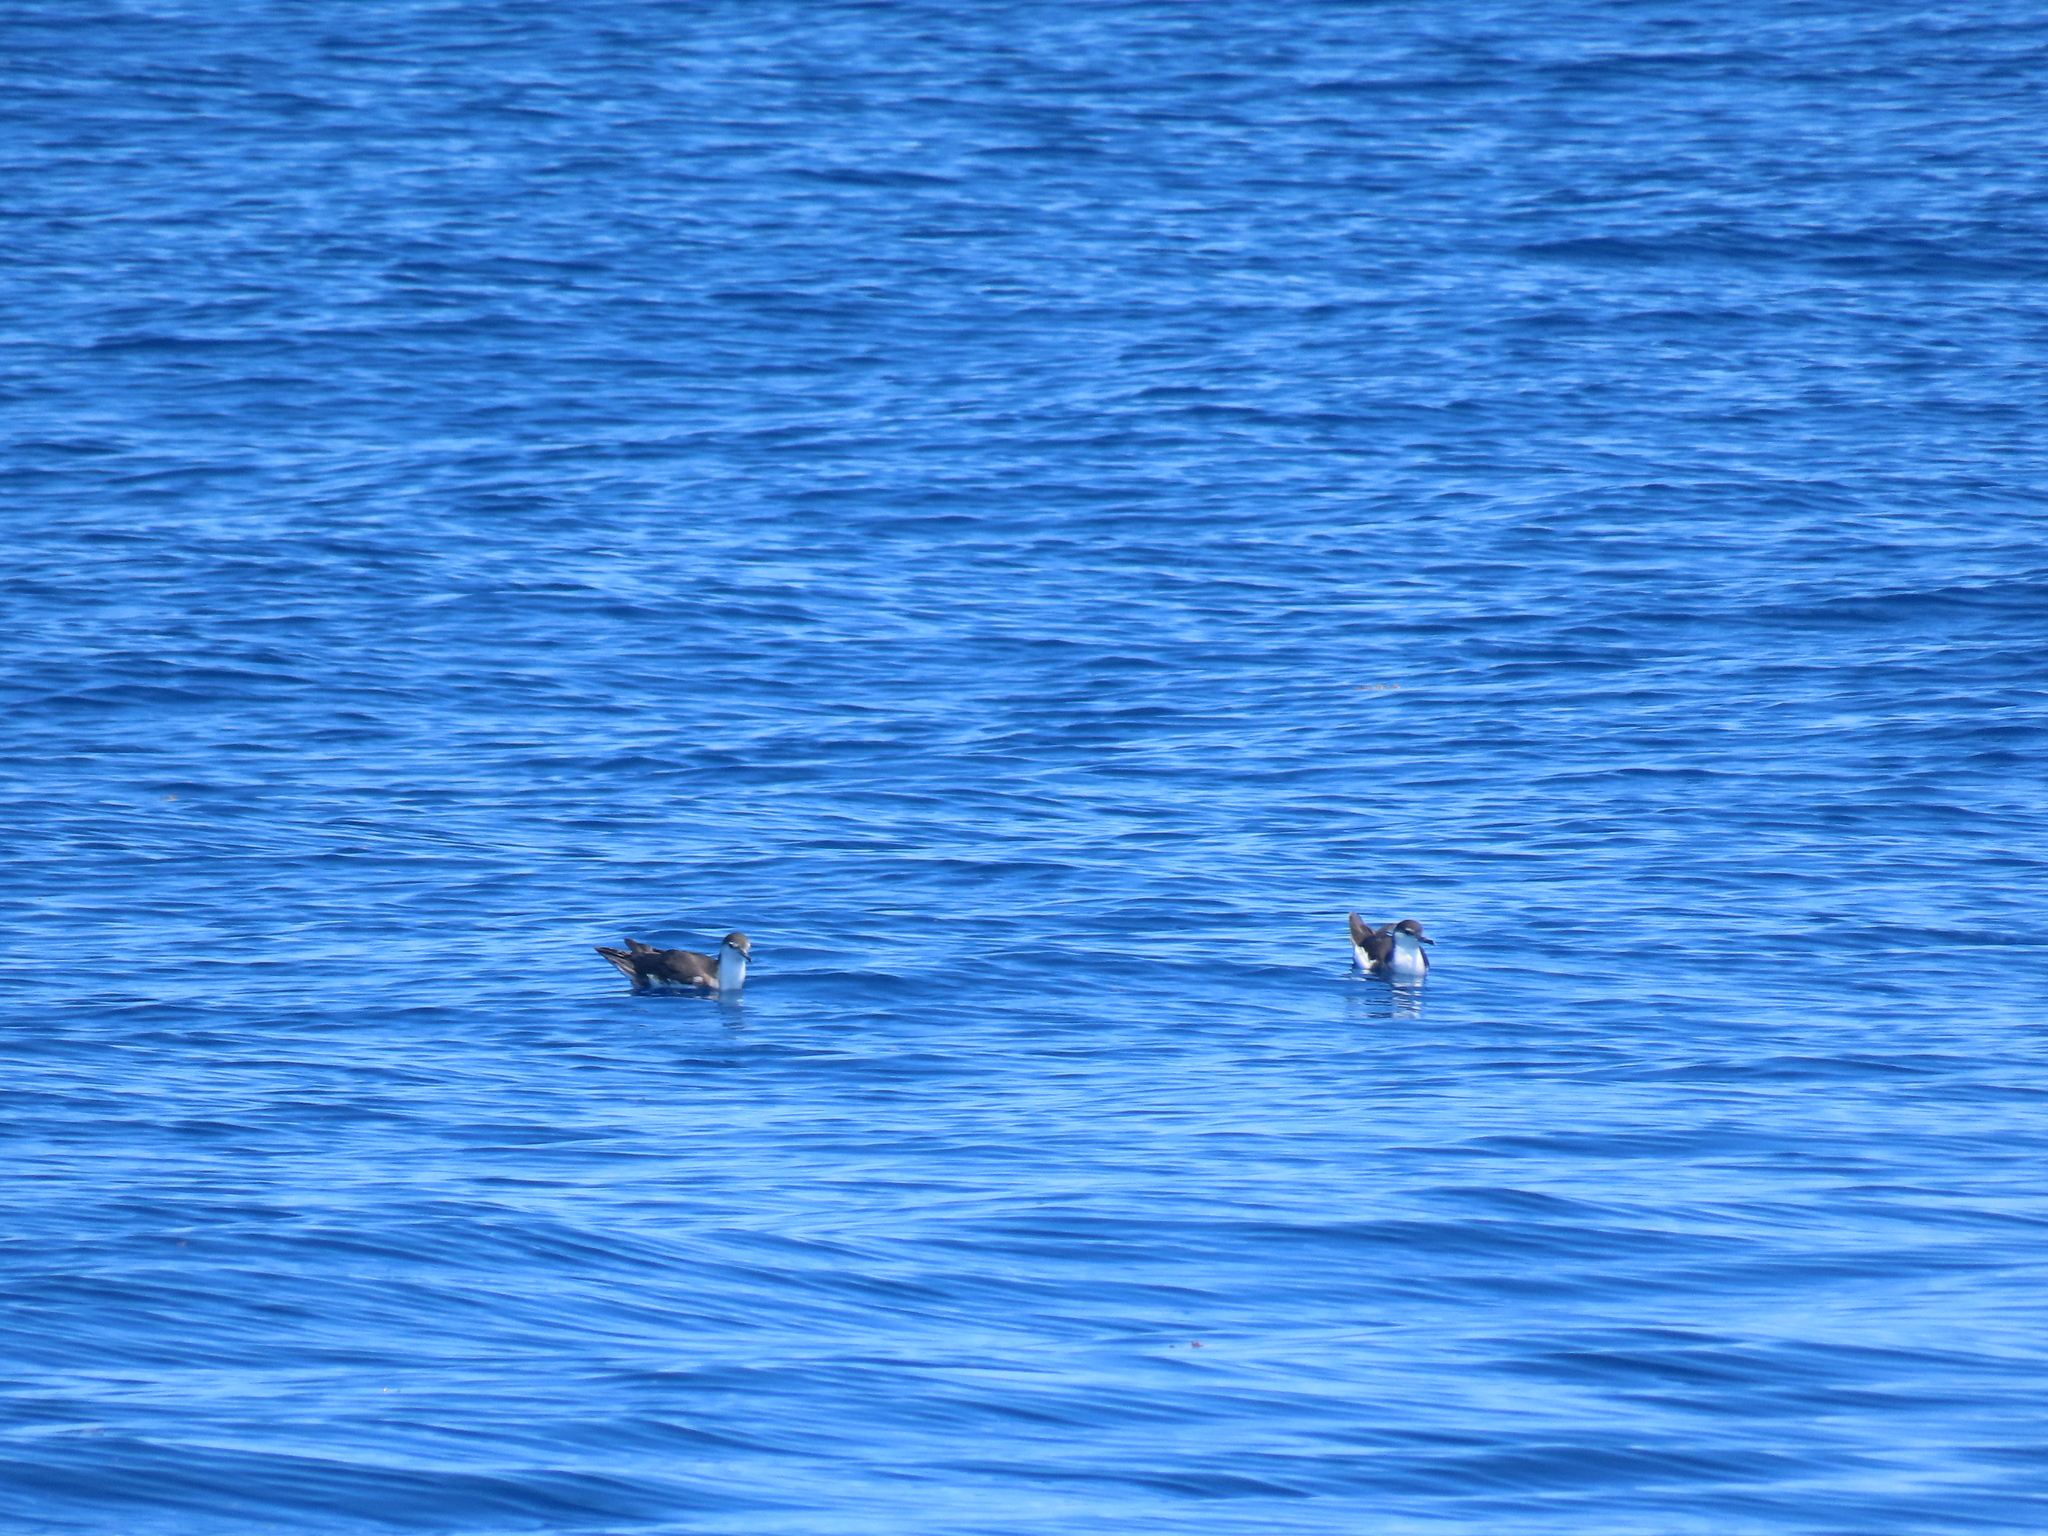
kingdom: Animalia
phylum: Chordata
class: Aves
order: Procellariiformes
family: Procellariidae
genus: Puffinus
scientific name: Puffinus lherminieri
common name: Audubon's shearwater
